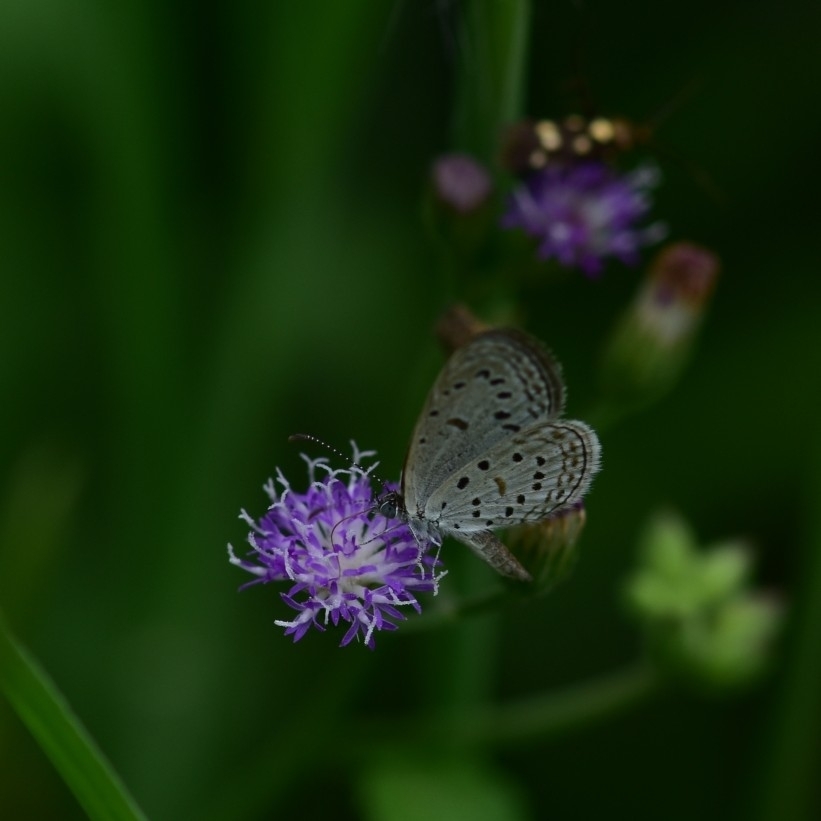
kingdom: Animalia
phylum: Arthropoda
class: Insecta
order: Lepidoptera
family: Lycaenidae
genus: Zizula
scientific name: Zizula hylax
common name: Gaika blue
